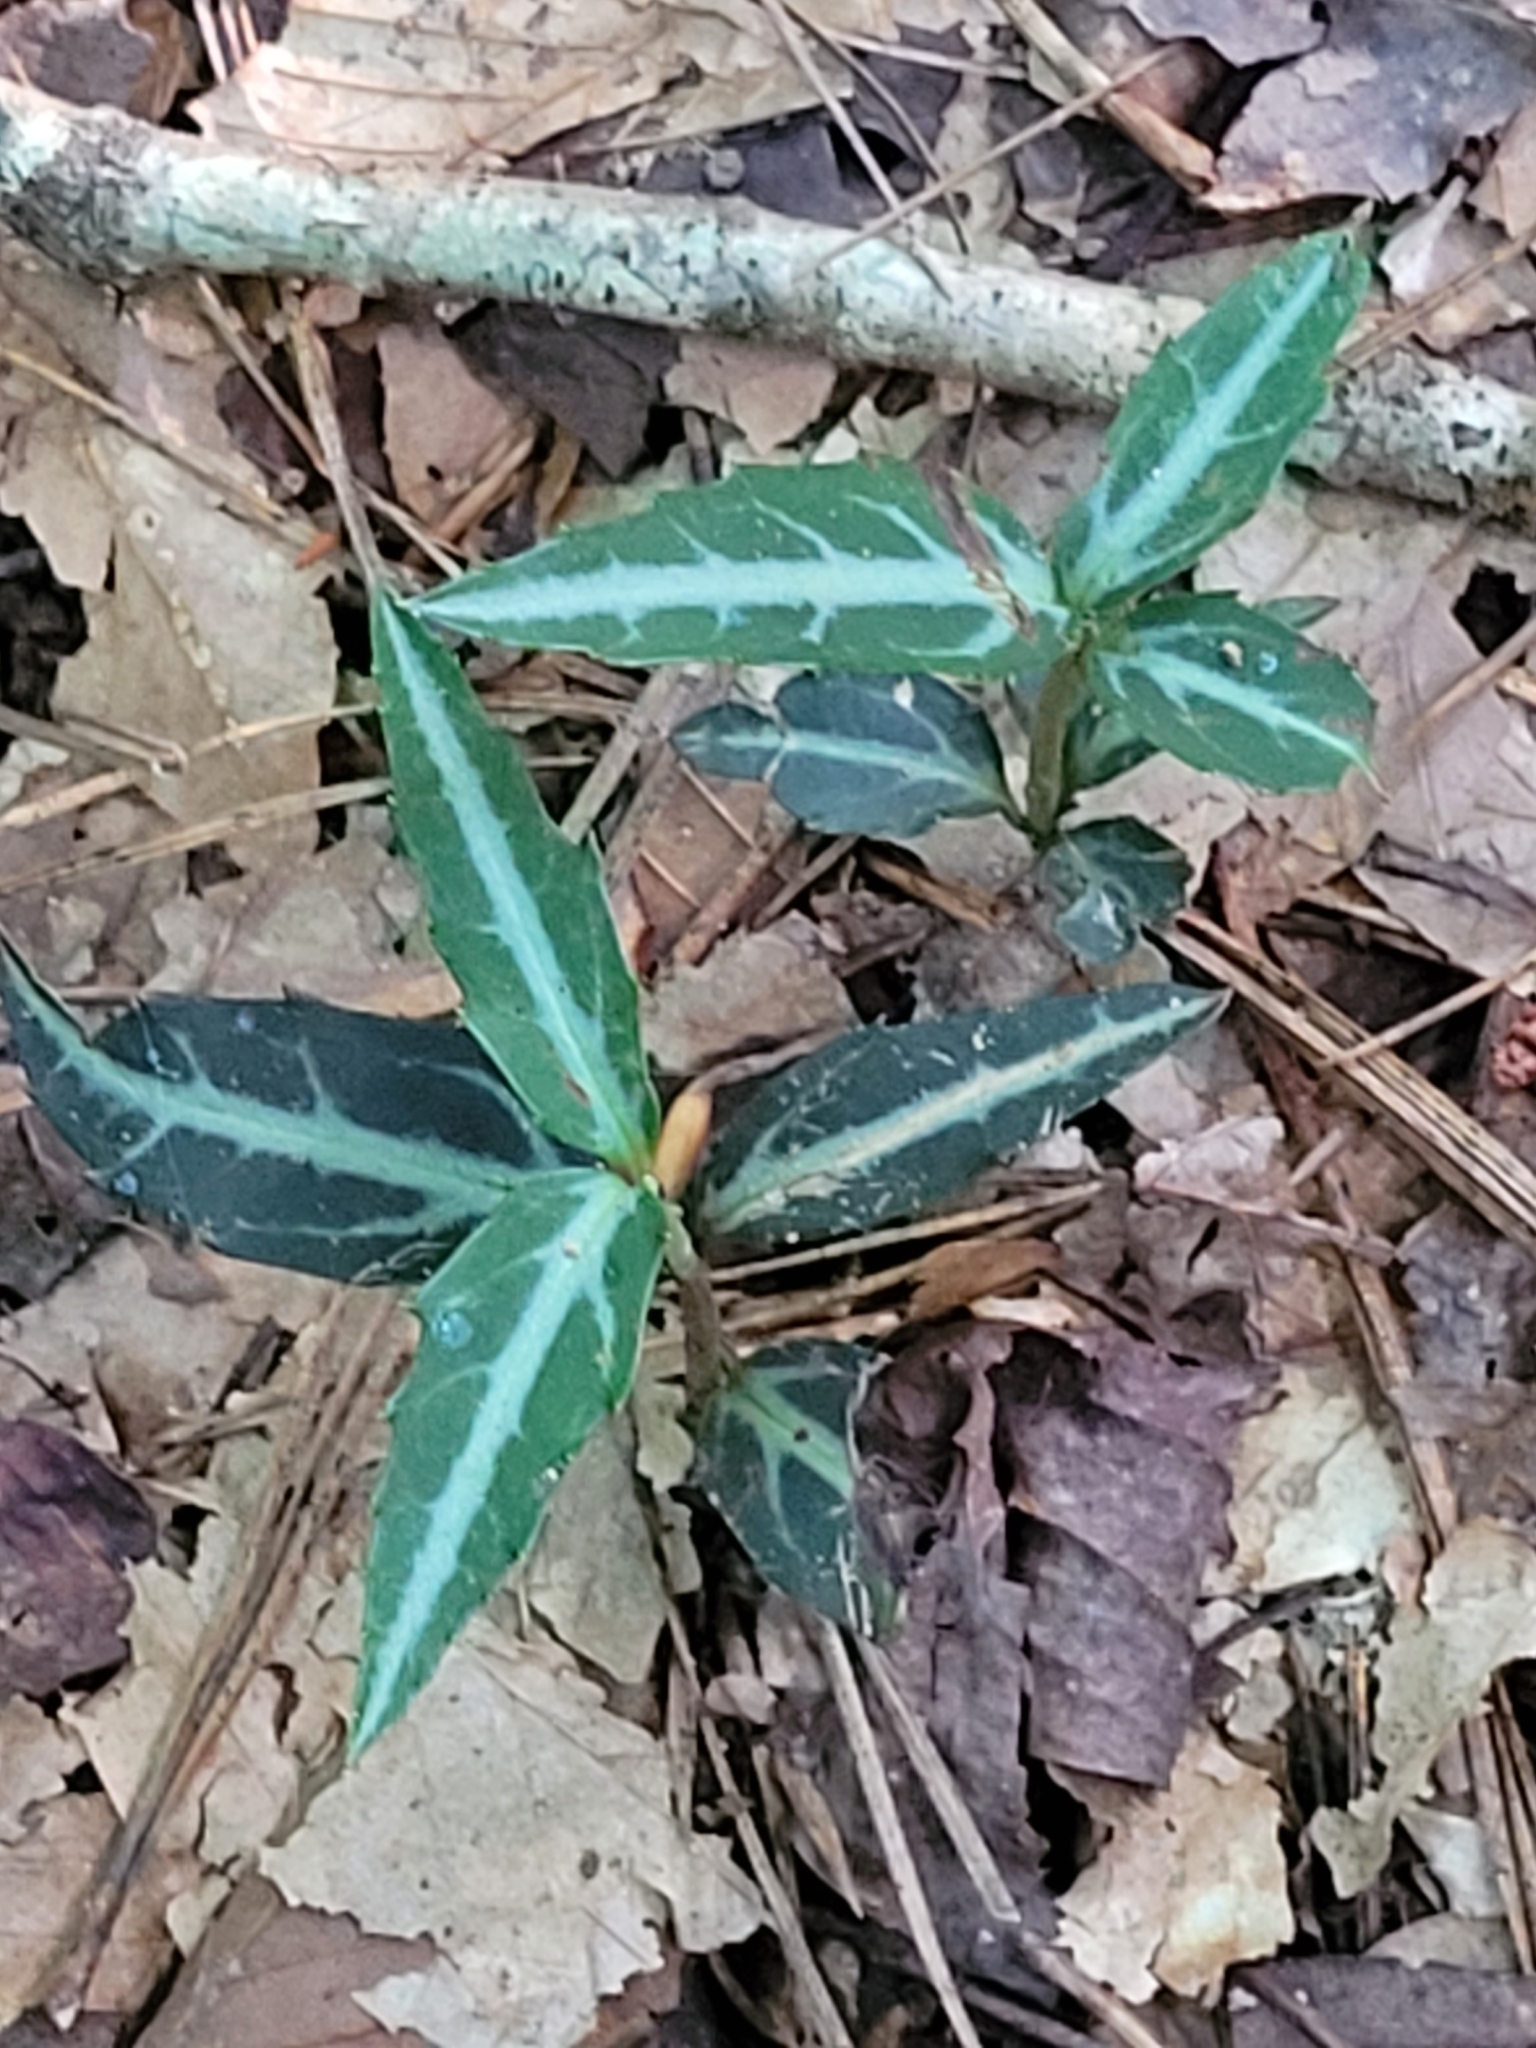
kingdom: Plantae
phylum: Tracheophyta
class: Magnoliopsida
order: Ericales
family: Ericaceae
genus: Chimaphila
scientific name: Chimaphila maculata
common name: Spotted pipsissewa
